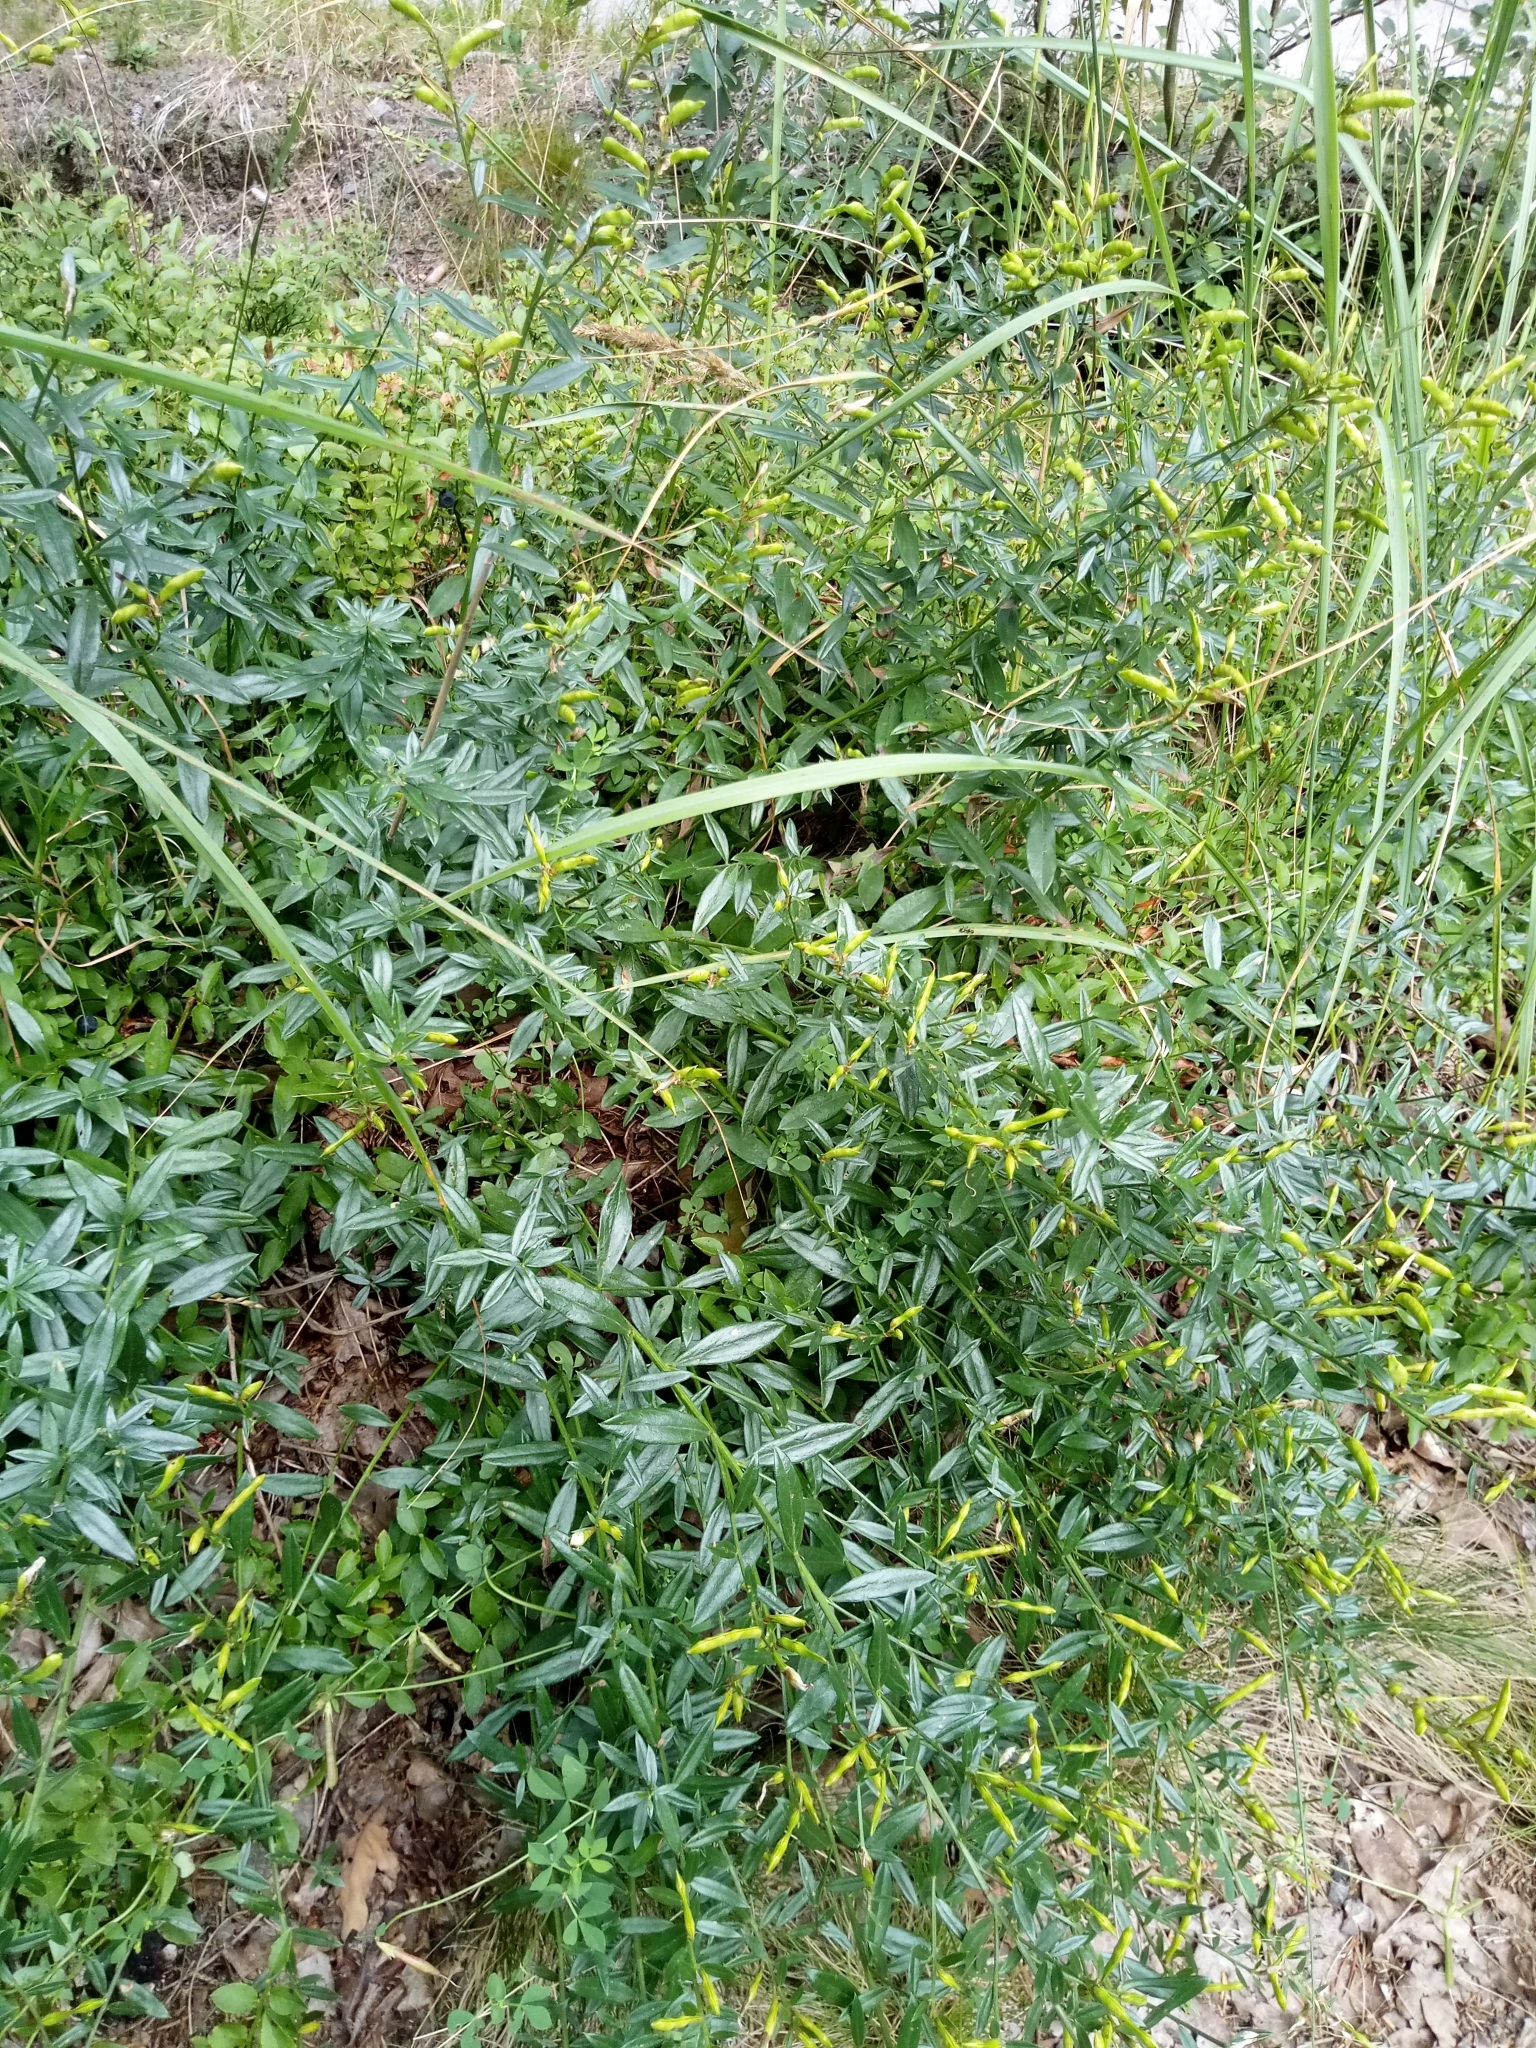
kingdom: Plantae
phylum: Tracheophyta
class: Magnoliopsida
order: Fabales
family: Fabaceae
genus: Genista
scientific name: Genista tinctoria
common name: Dyer's greenweed
